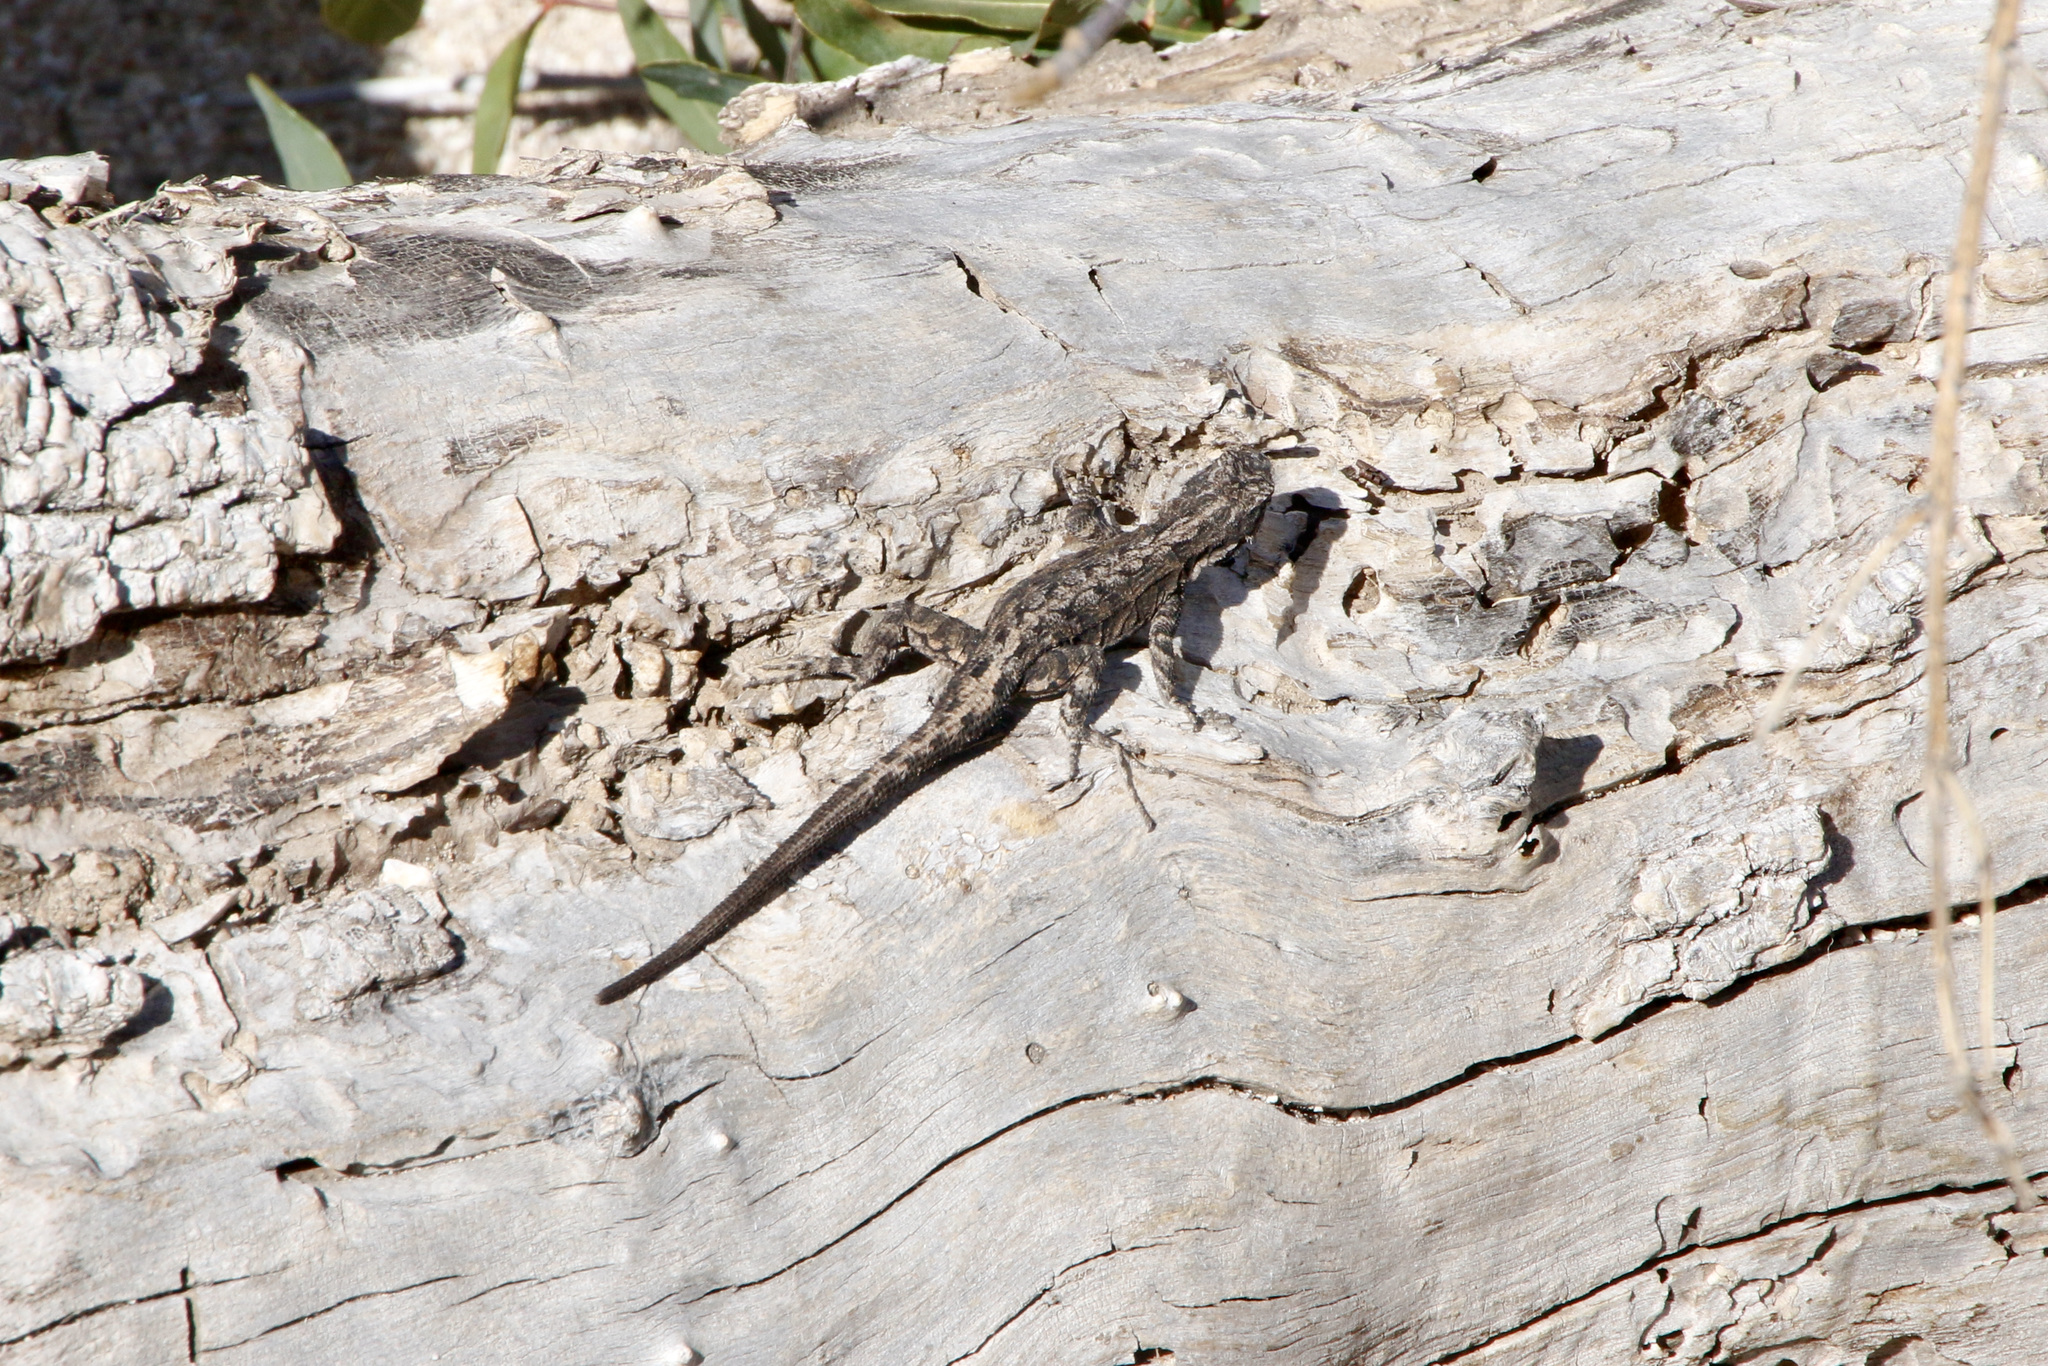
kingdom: Animalia
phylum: Chordata
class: Squamata
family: Phrynosomatidae
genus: Urosaurus
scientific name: Urosaurus ornatus
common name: Ornate tree lizard
